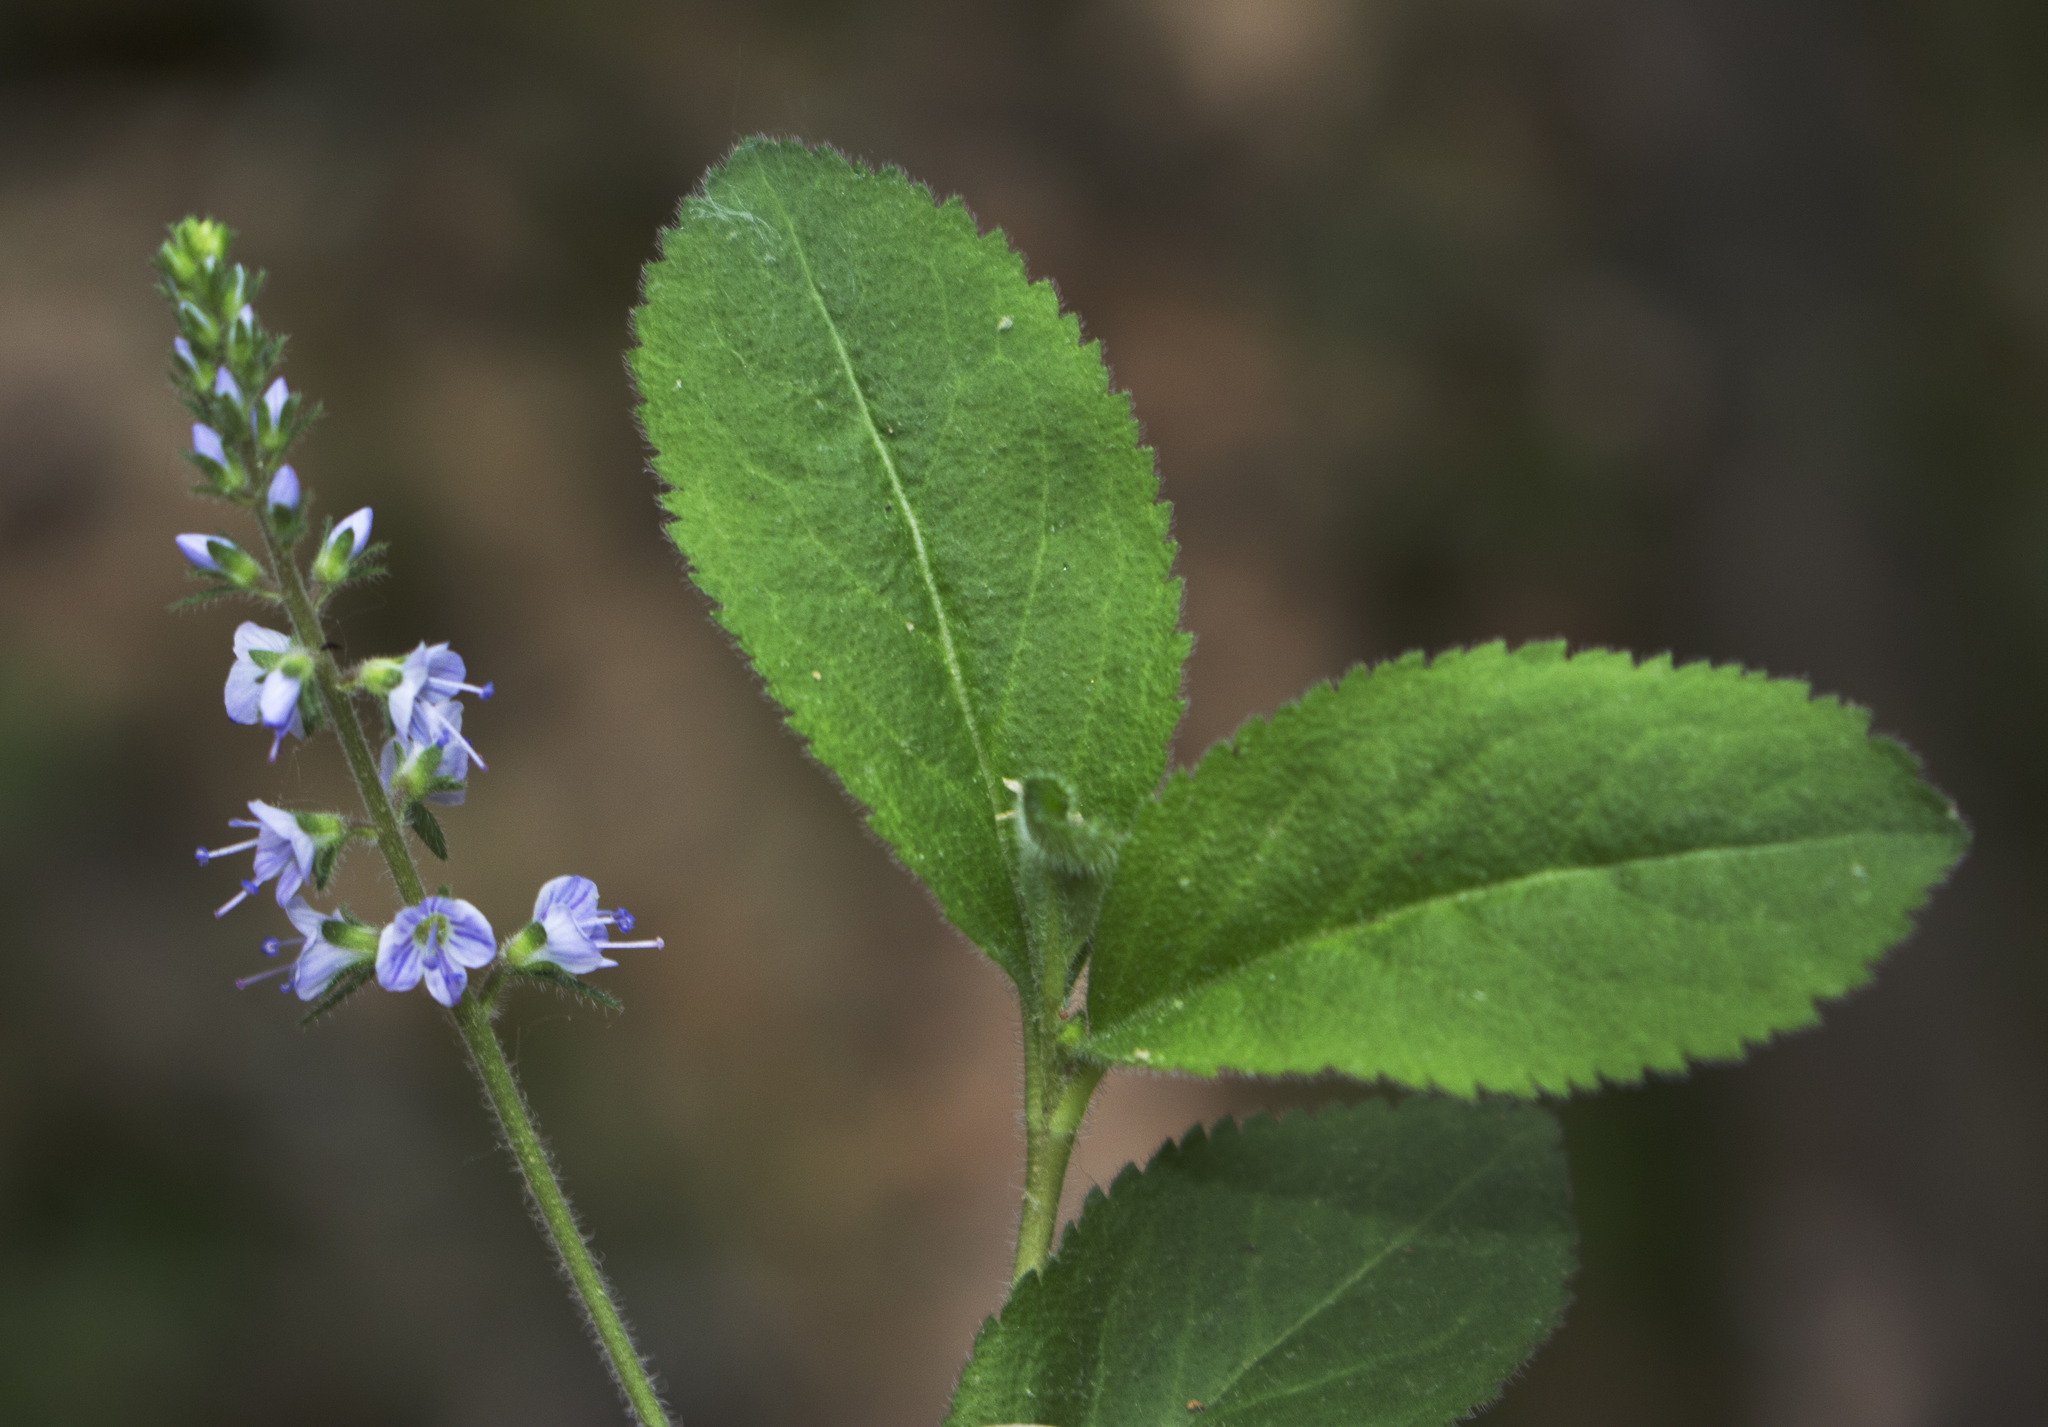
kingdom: Plantae
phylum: Tracheophyta
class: Magnoliopsida
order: Lamiales
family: Plantaginaceae
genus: Veronica
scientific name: Veronica officinalis
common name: Common speedwell
